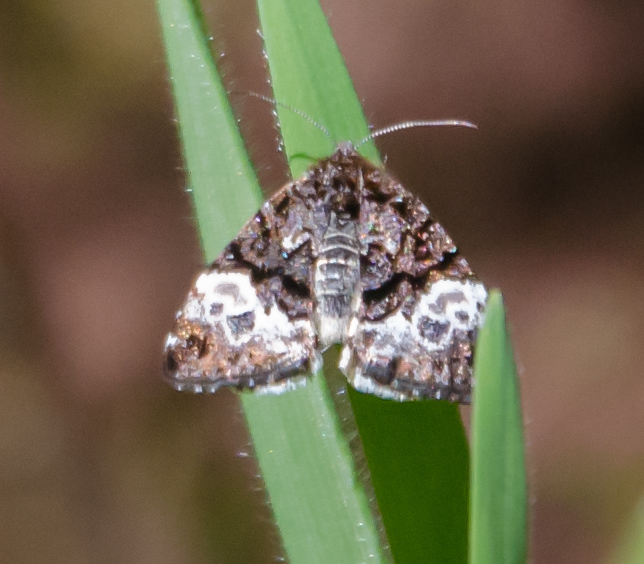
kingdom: Animalia
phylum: Arthropoda
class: Insecta
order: Lepidoptera
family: Noctuidae
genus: Annaphila
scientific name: Annaphila diva
